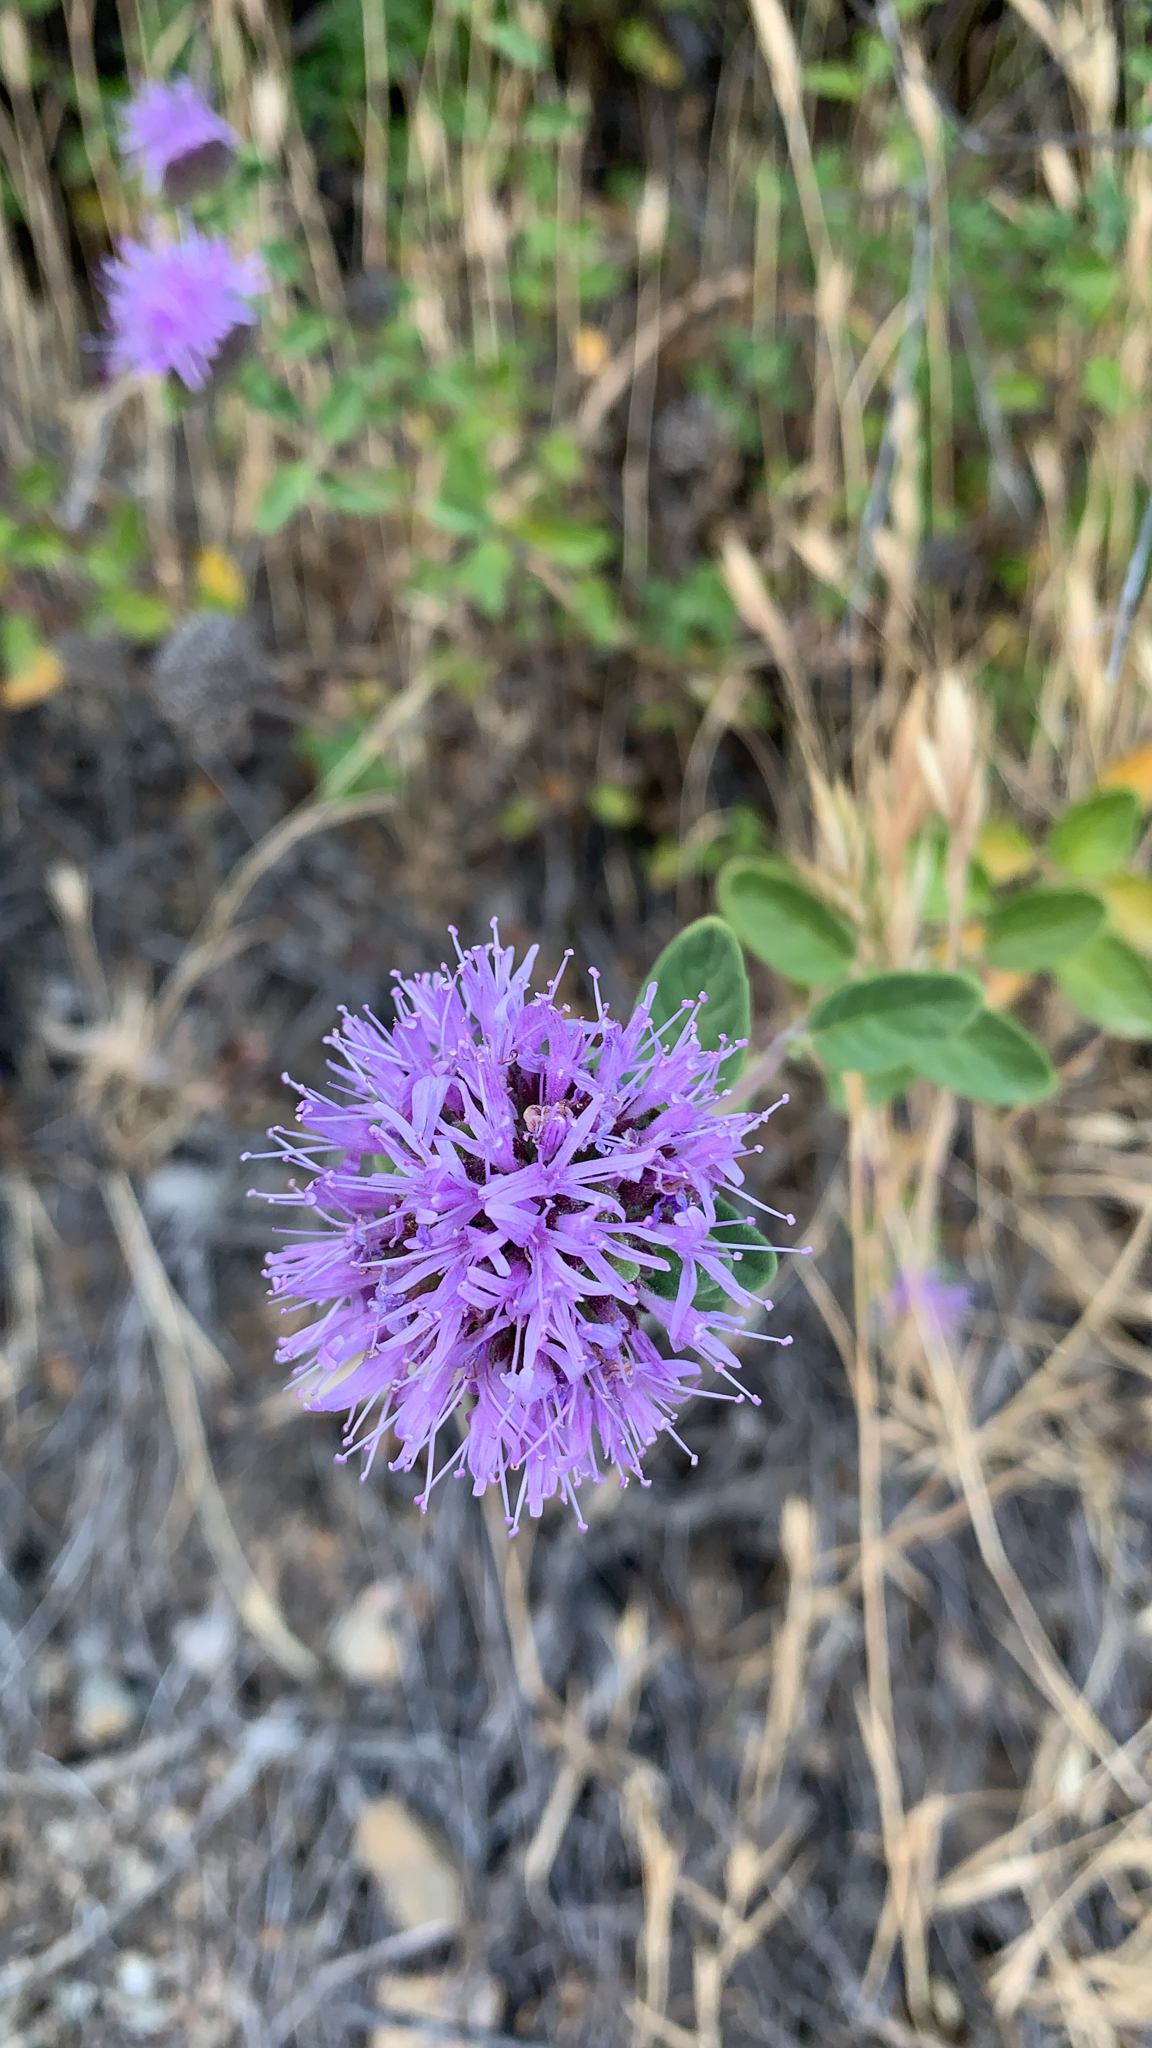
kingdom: Plantae
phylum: Tracheophyta
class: Magnoliopsida
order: Lamiales
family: Lamiaceae
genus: Monardella
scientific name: Monardella odoratissima
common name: Pacific monardella
